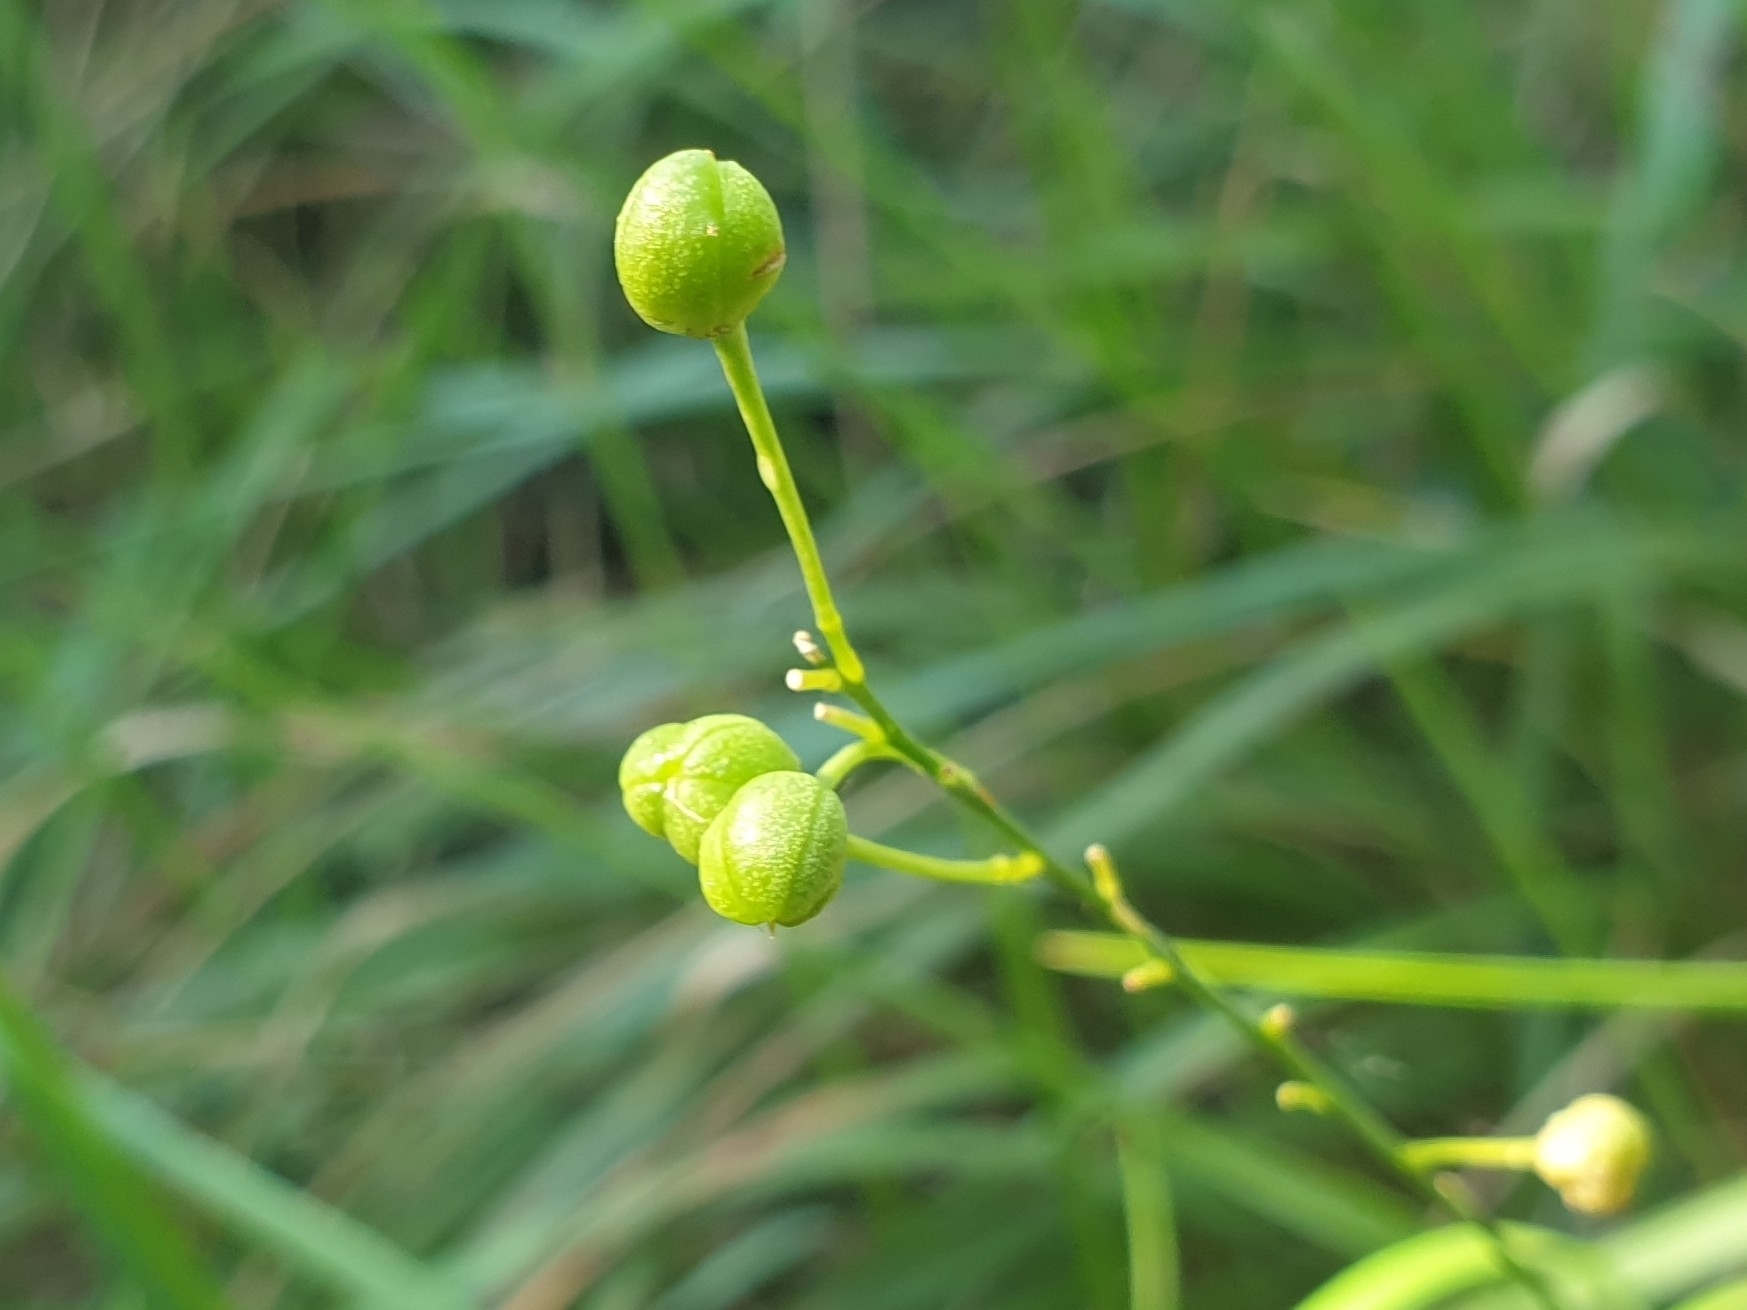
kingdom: Plantae
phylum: Tracheophyta
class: Liliopsida
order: Asparagales
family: Asparagaceae
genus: Anthericum
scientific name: Anthericum ramosum
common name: Branched st. bernard's-lily
